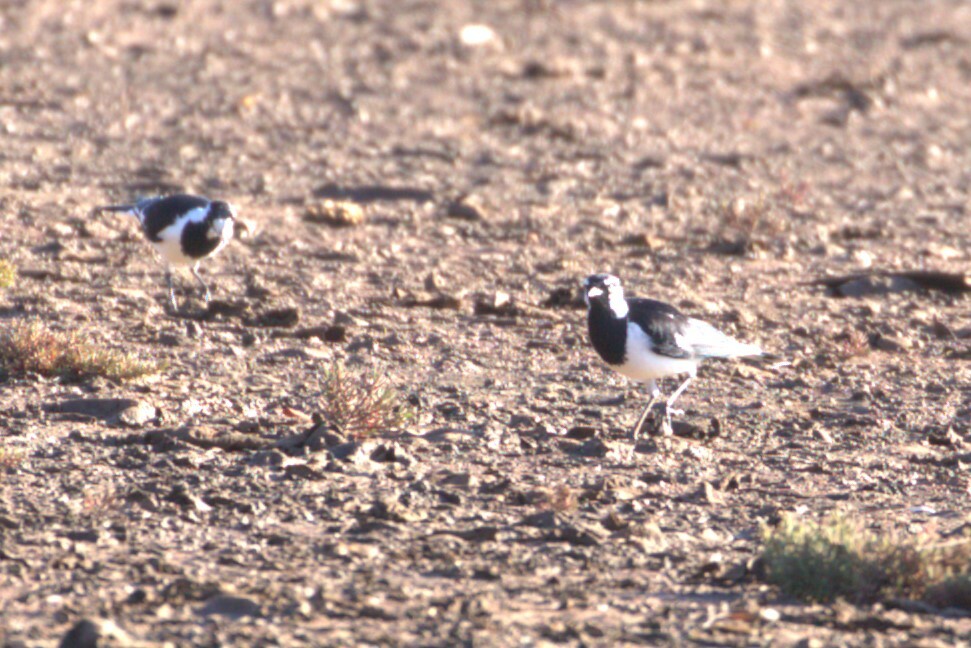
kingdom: Animalia
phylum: Chordata
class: Aves
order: Passeriformes
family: Monarchidae
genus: Grallina
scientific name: Grallina cyanoleuca
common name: Magpie-lark
